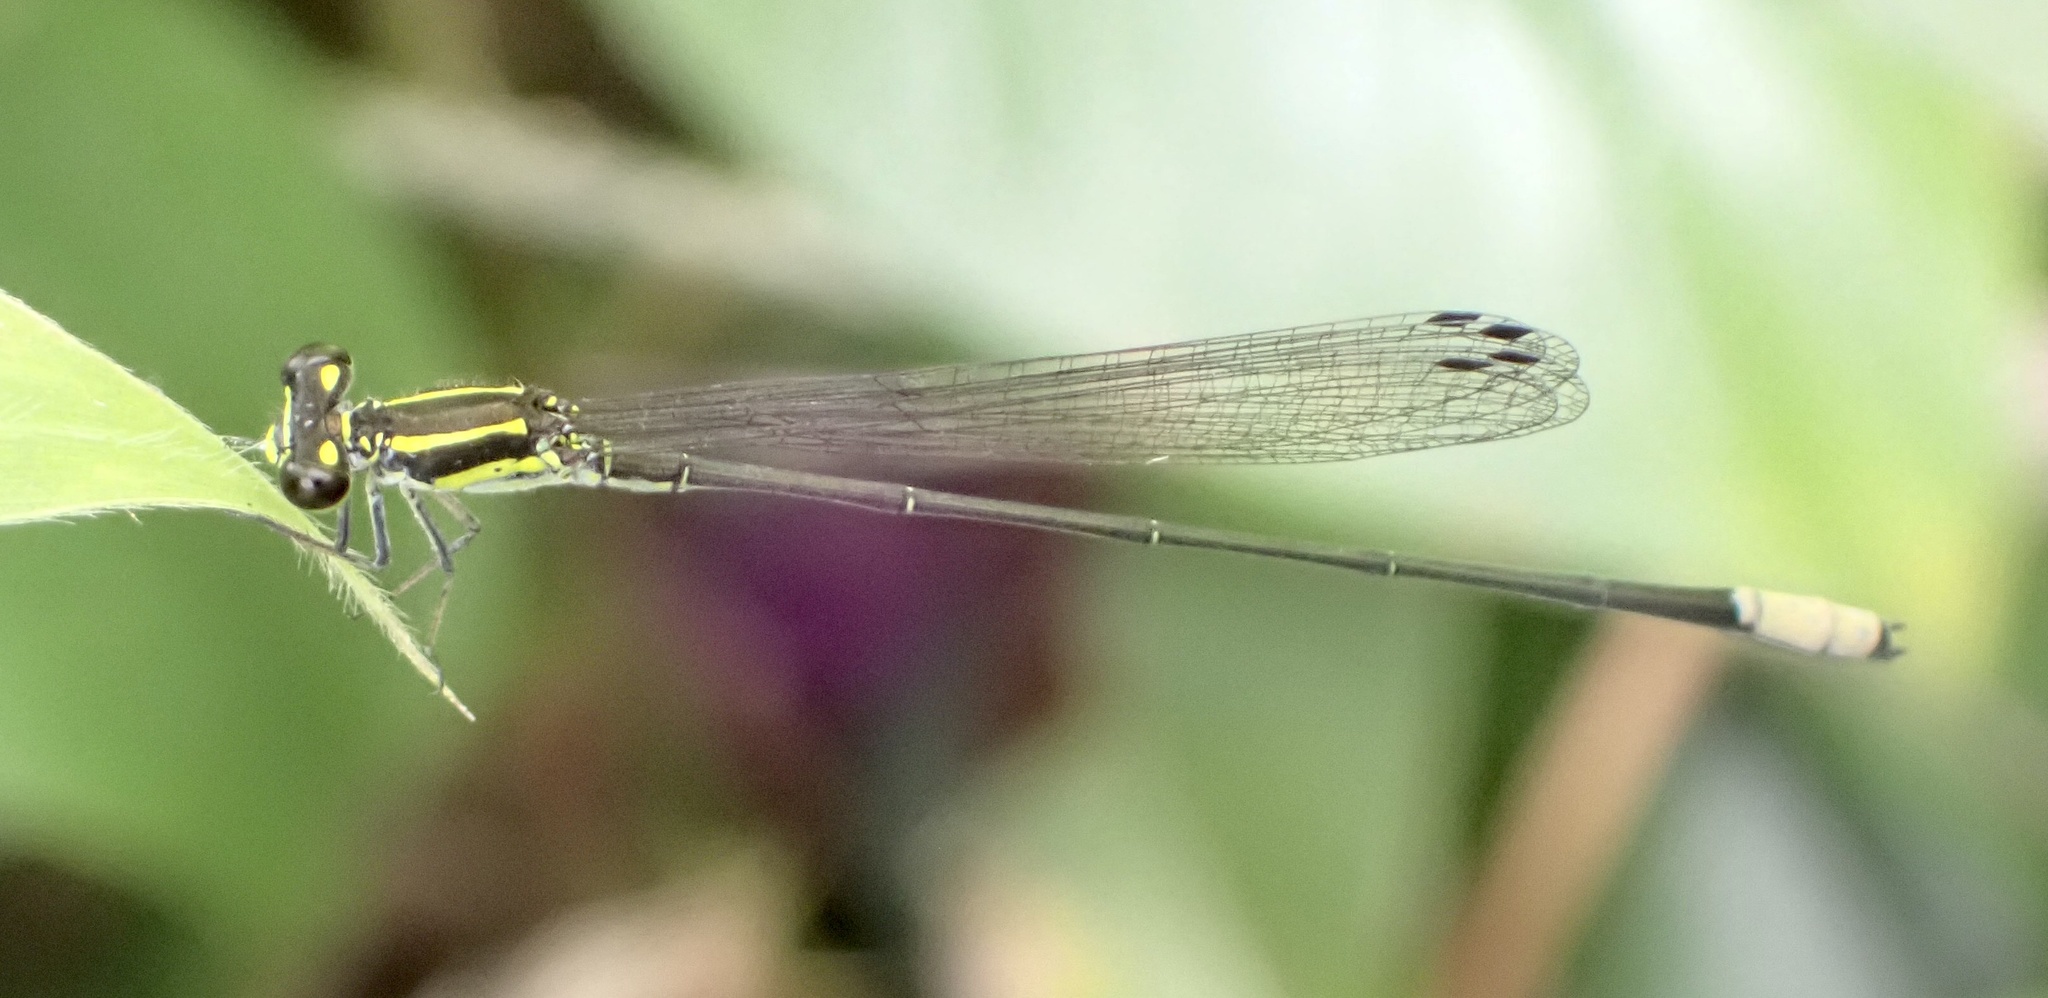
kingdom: Animalia
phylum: Arthropoda
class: Insecta
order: Odonata
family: Coenagrionidae
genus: Pseudagrion
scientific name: Pseudagrion melanicterum
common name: Farmbush sprite
